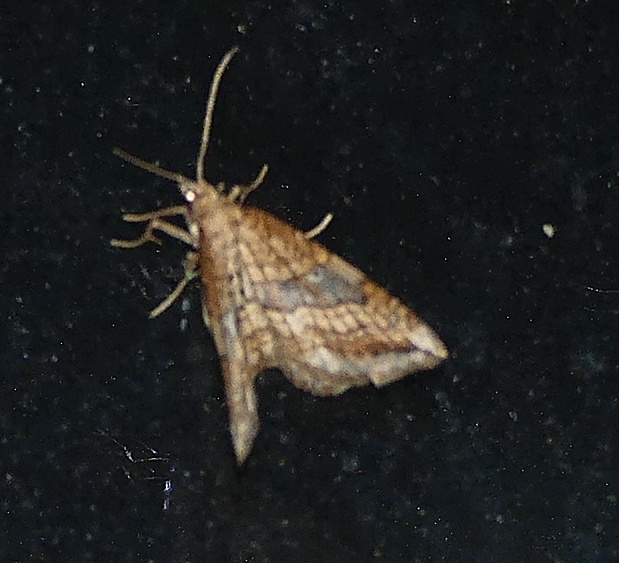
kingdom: Animalia
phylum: Arthropoda
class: Insecta
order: Lepidoptera
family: Geometridae
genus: Orthonama
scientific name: Orthonama evansi
